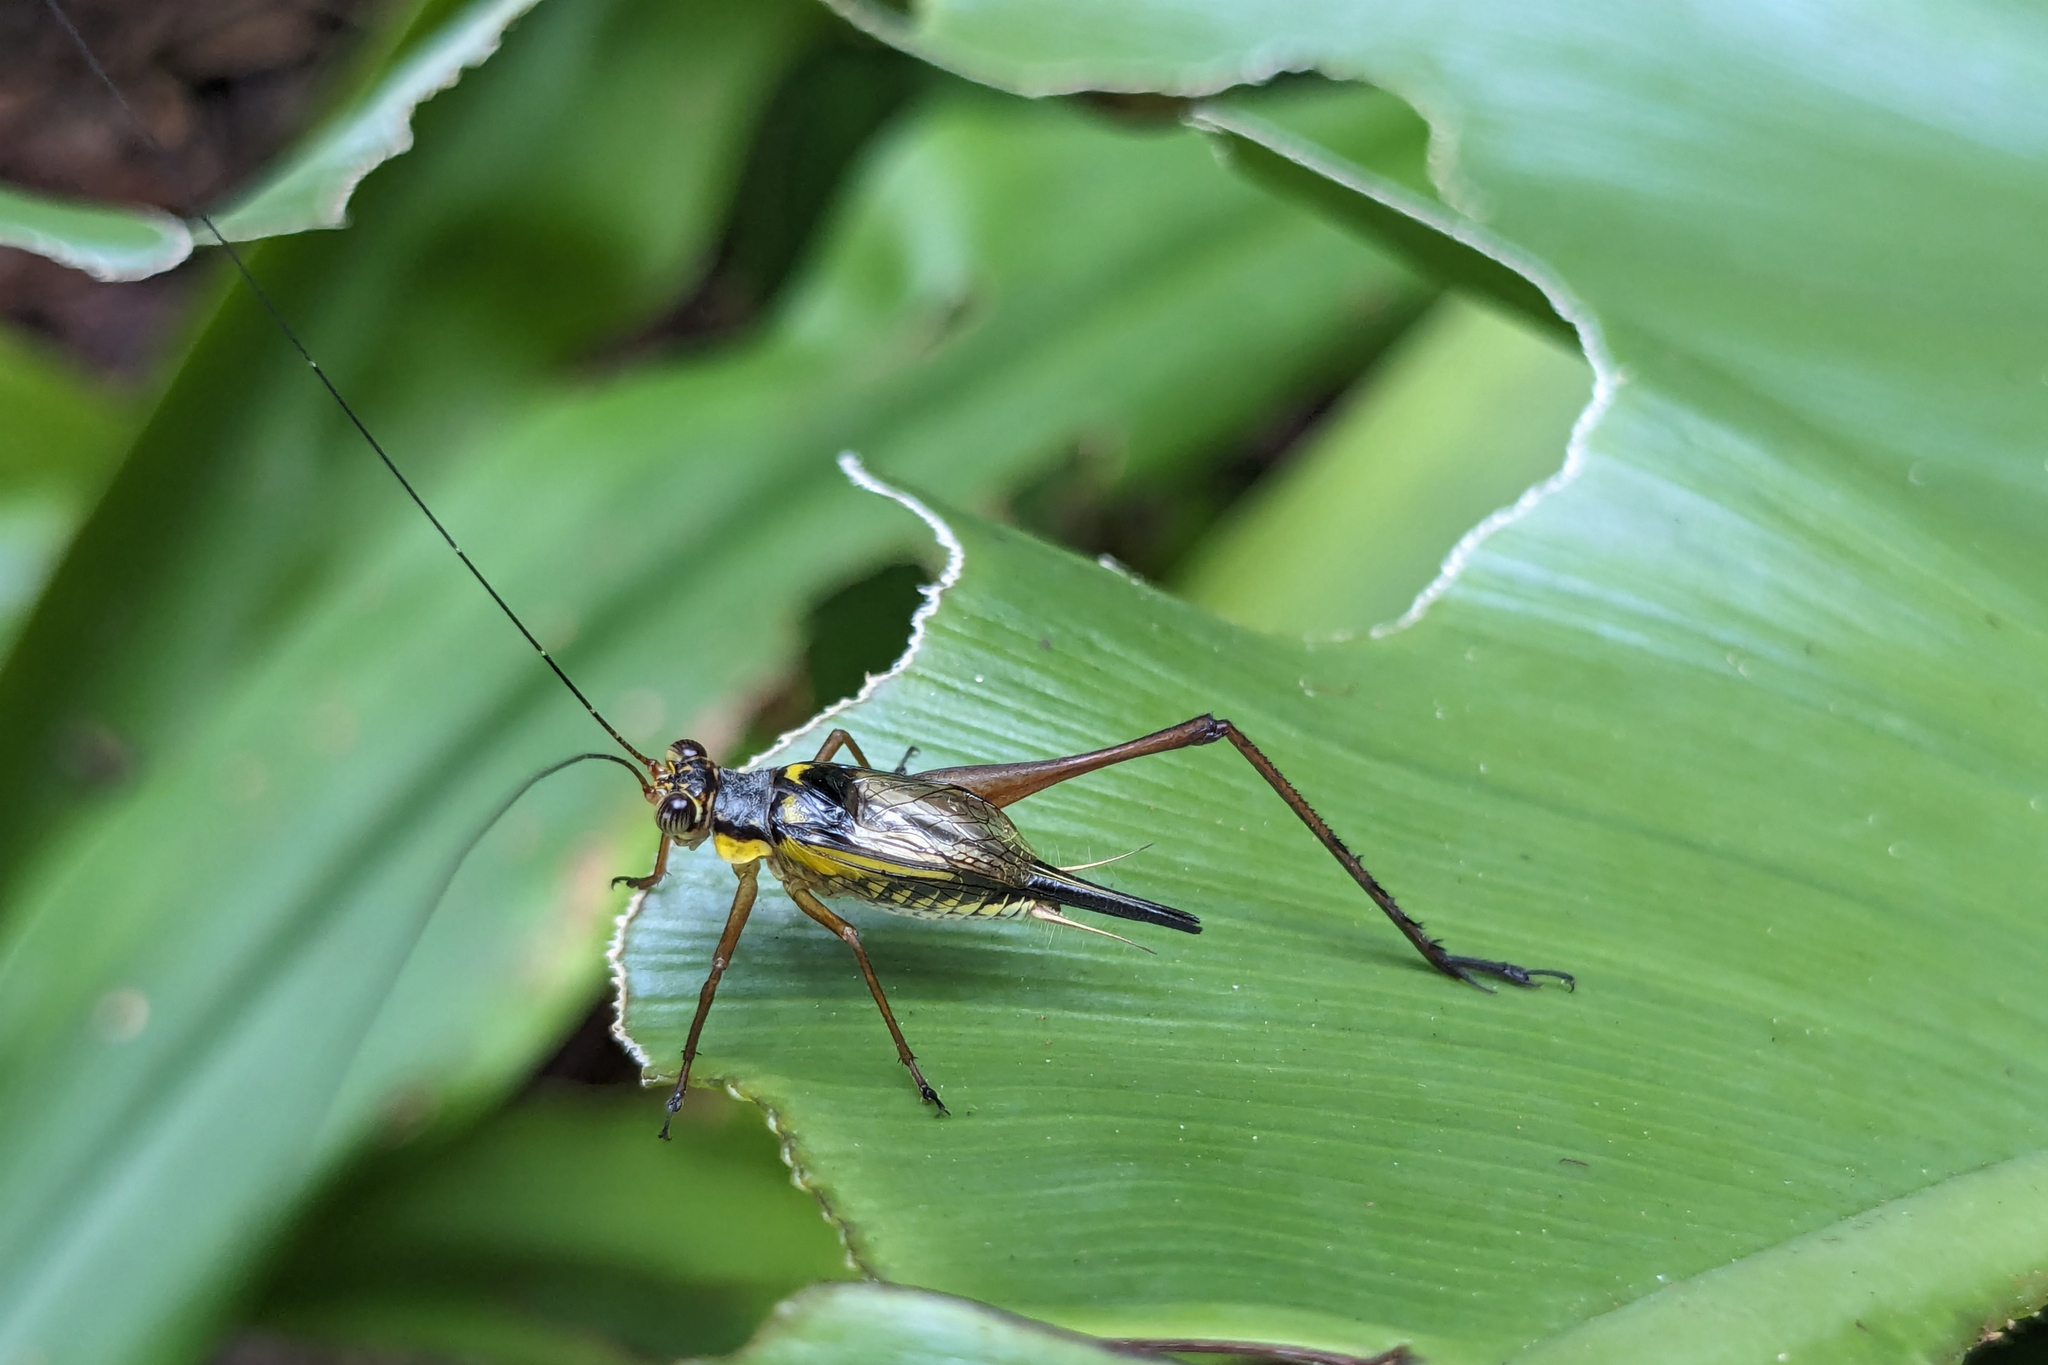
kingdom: Animalia
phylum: Arthropoda
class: Insecta
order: Orthoptera
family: Gryllidae
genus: Nisitrus
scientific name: Nisitrus malaya
